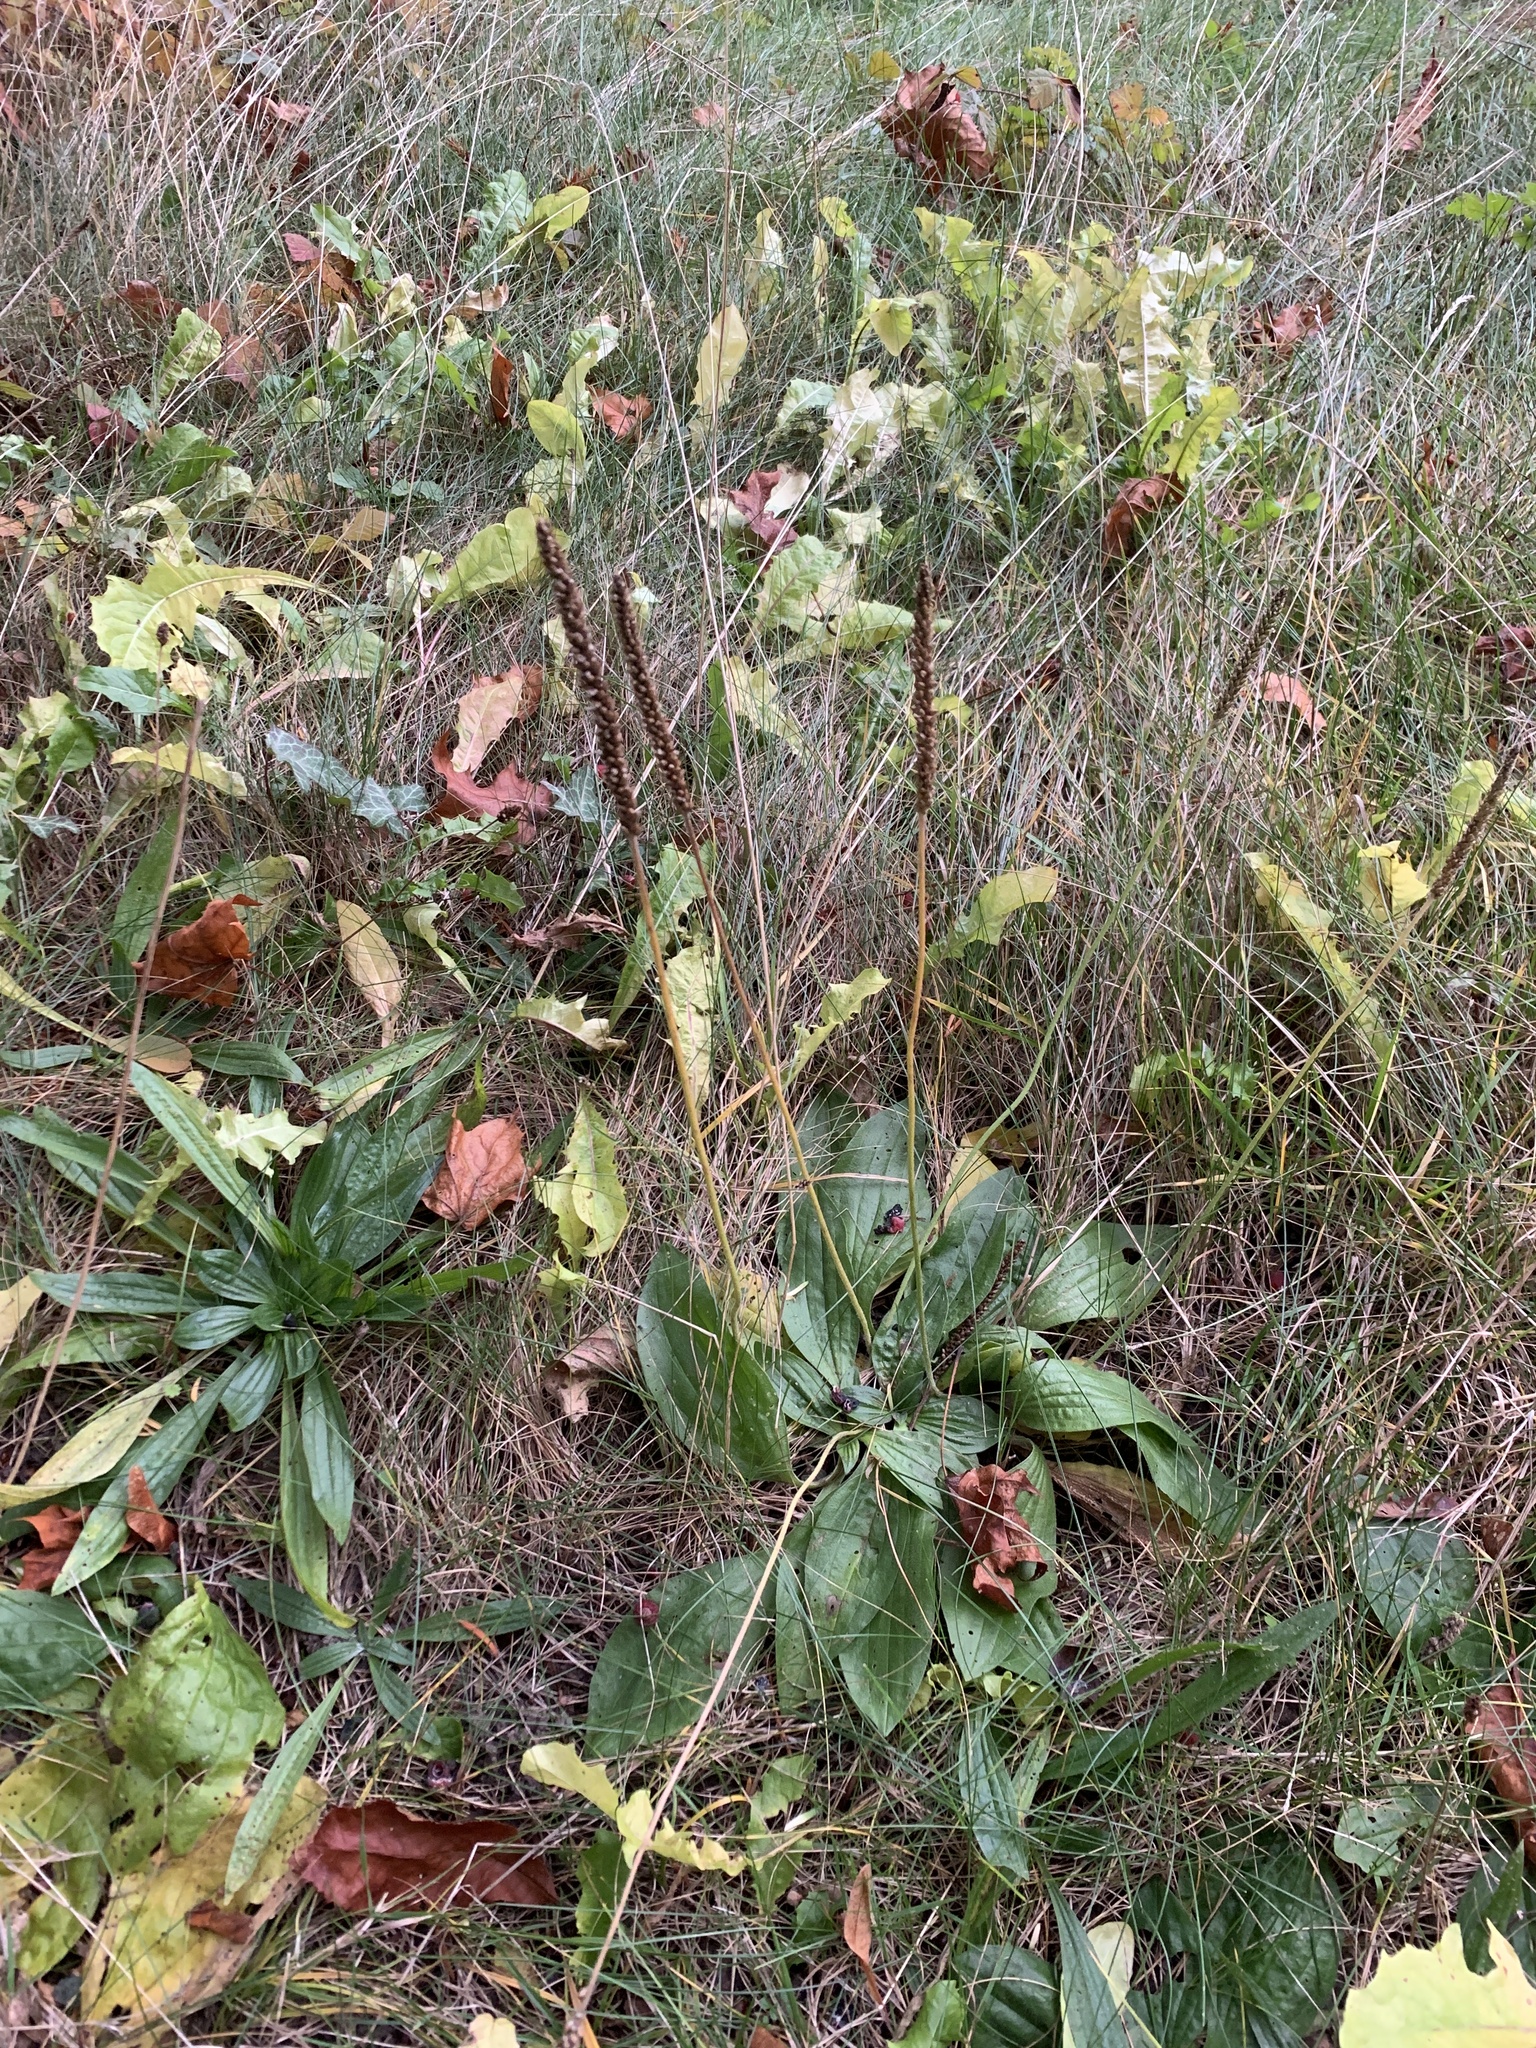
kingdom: Plantae
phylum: Tracheophyta
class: Magnoliopsida
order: Lamiales
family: Plantaginaceae
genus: Plantago
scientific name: Plantago major
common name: Common plantain
